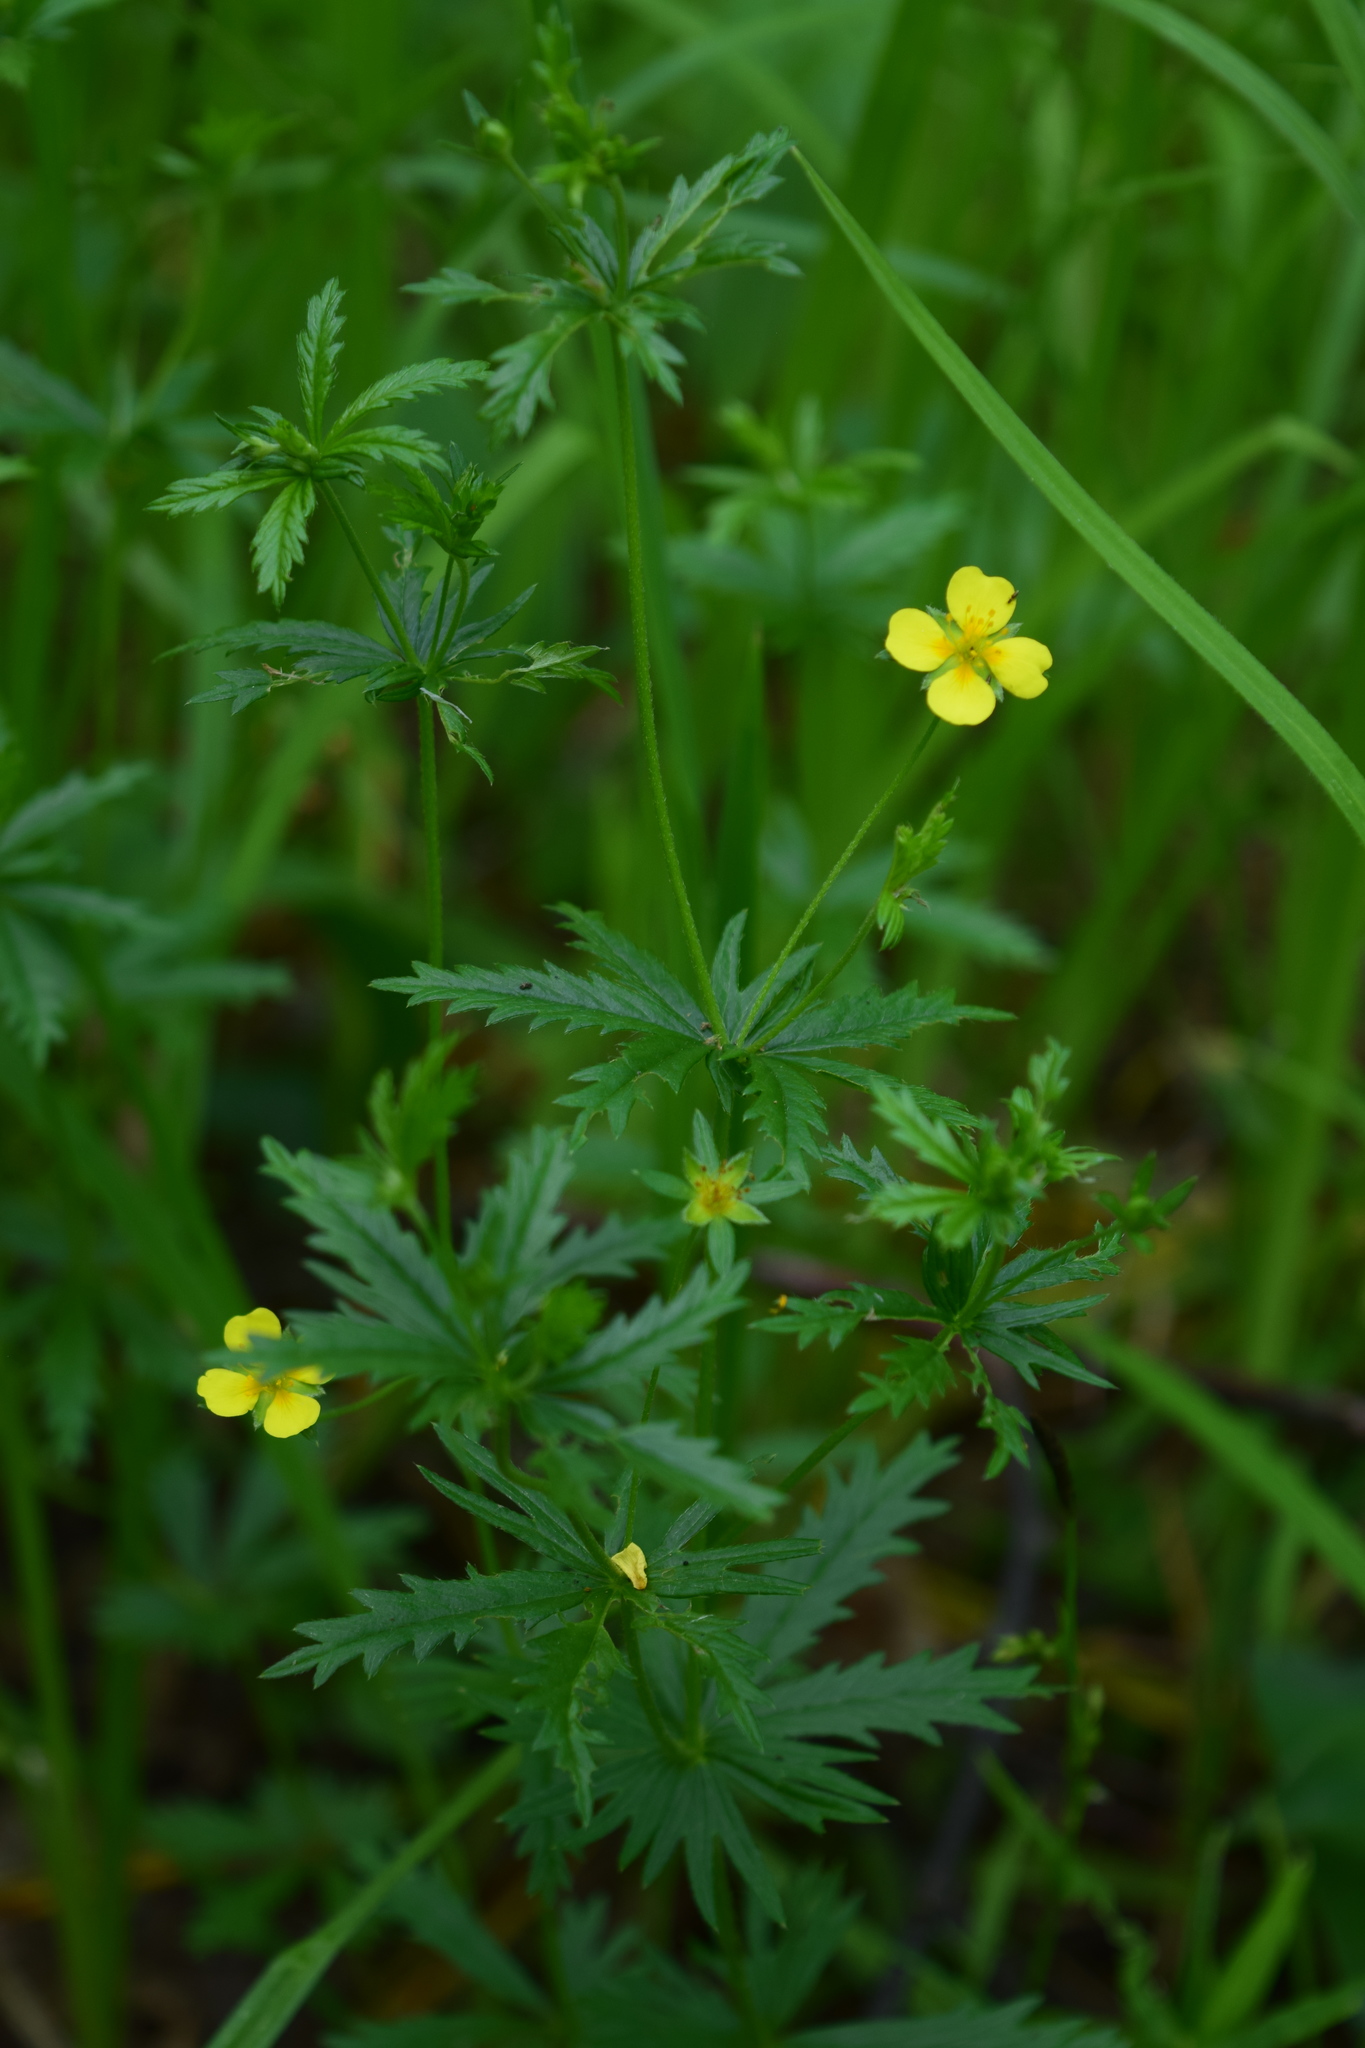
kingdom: Plantae
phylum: Tracheophyta
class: Magnoliopsida
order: Rosales
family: Rosaceae
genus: Potentilla
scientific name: Potentilla erecta
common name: Tormentil
